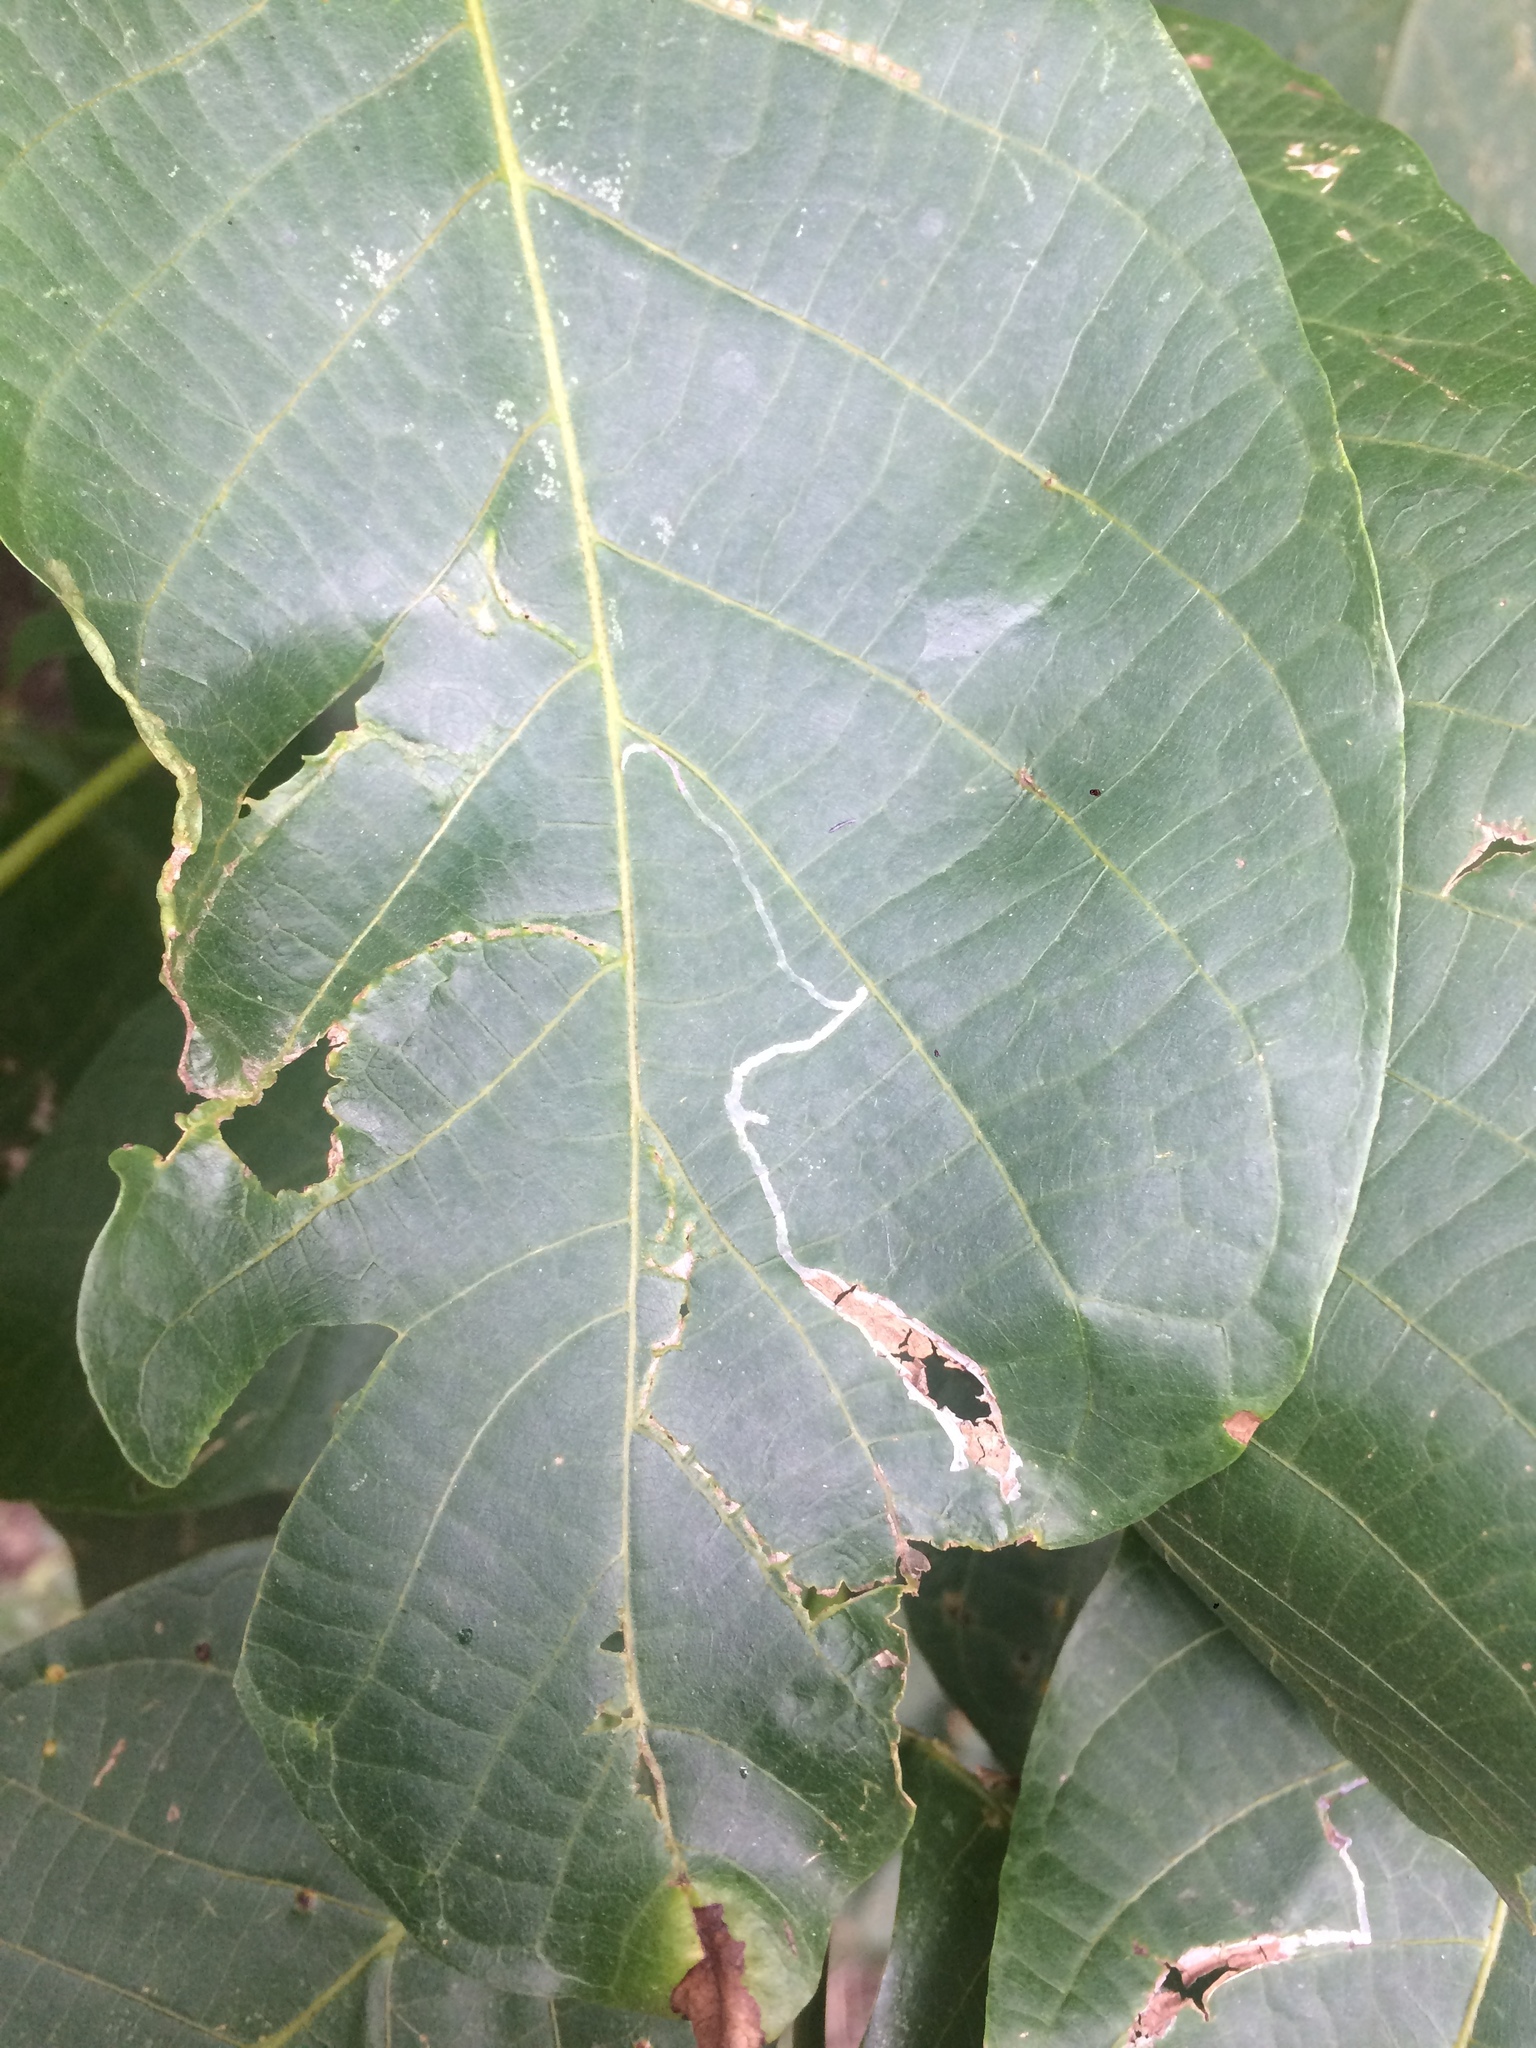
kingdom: Animalia
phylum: Arthropoda
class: Insecta
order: Lepidoptera
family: Gracillariidae
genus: Caloptilia
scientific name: Caloptilia roscipennella
